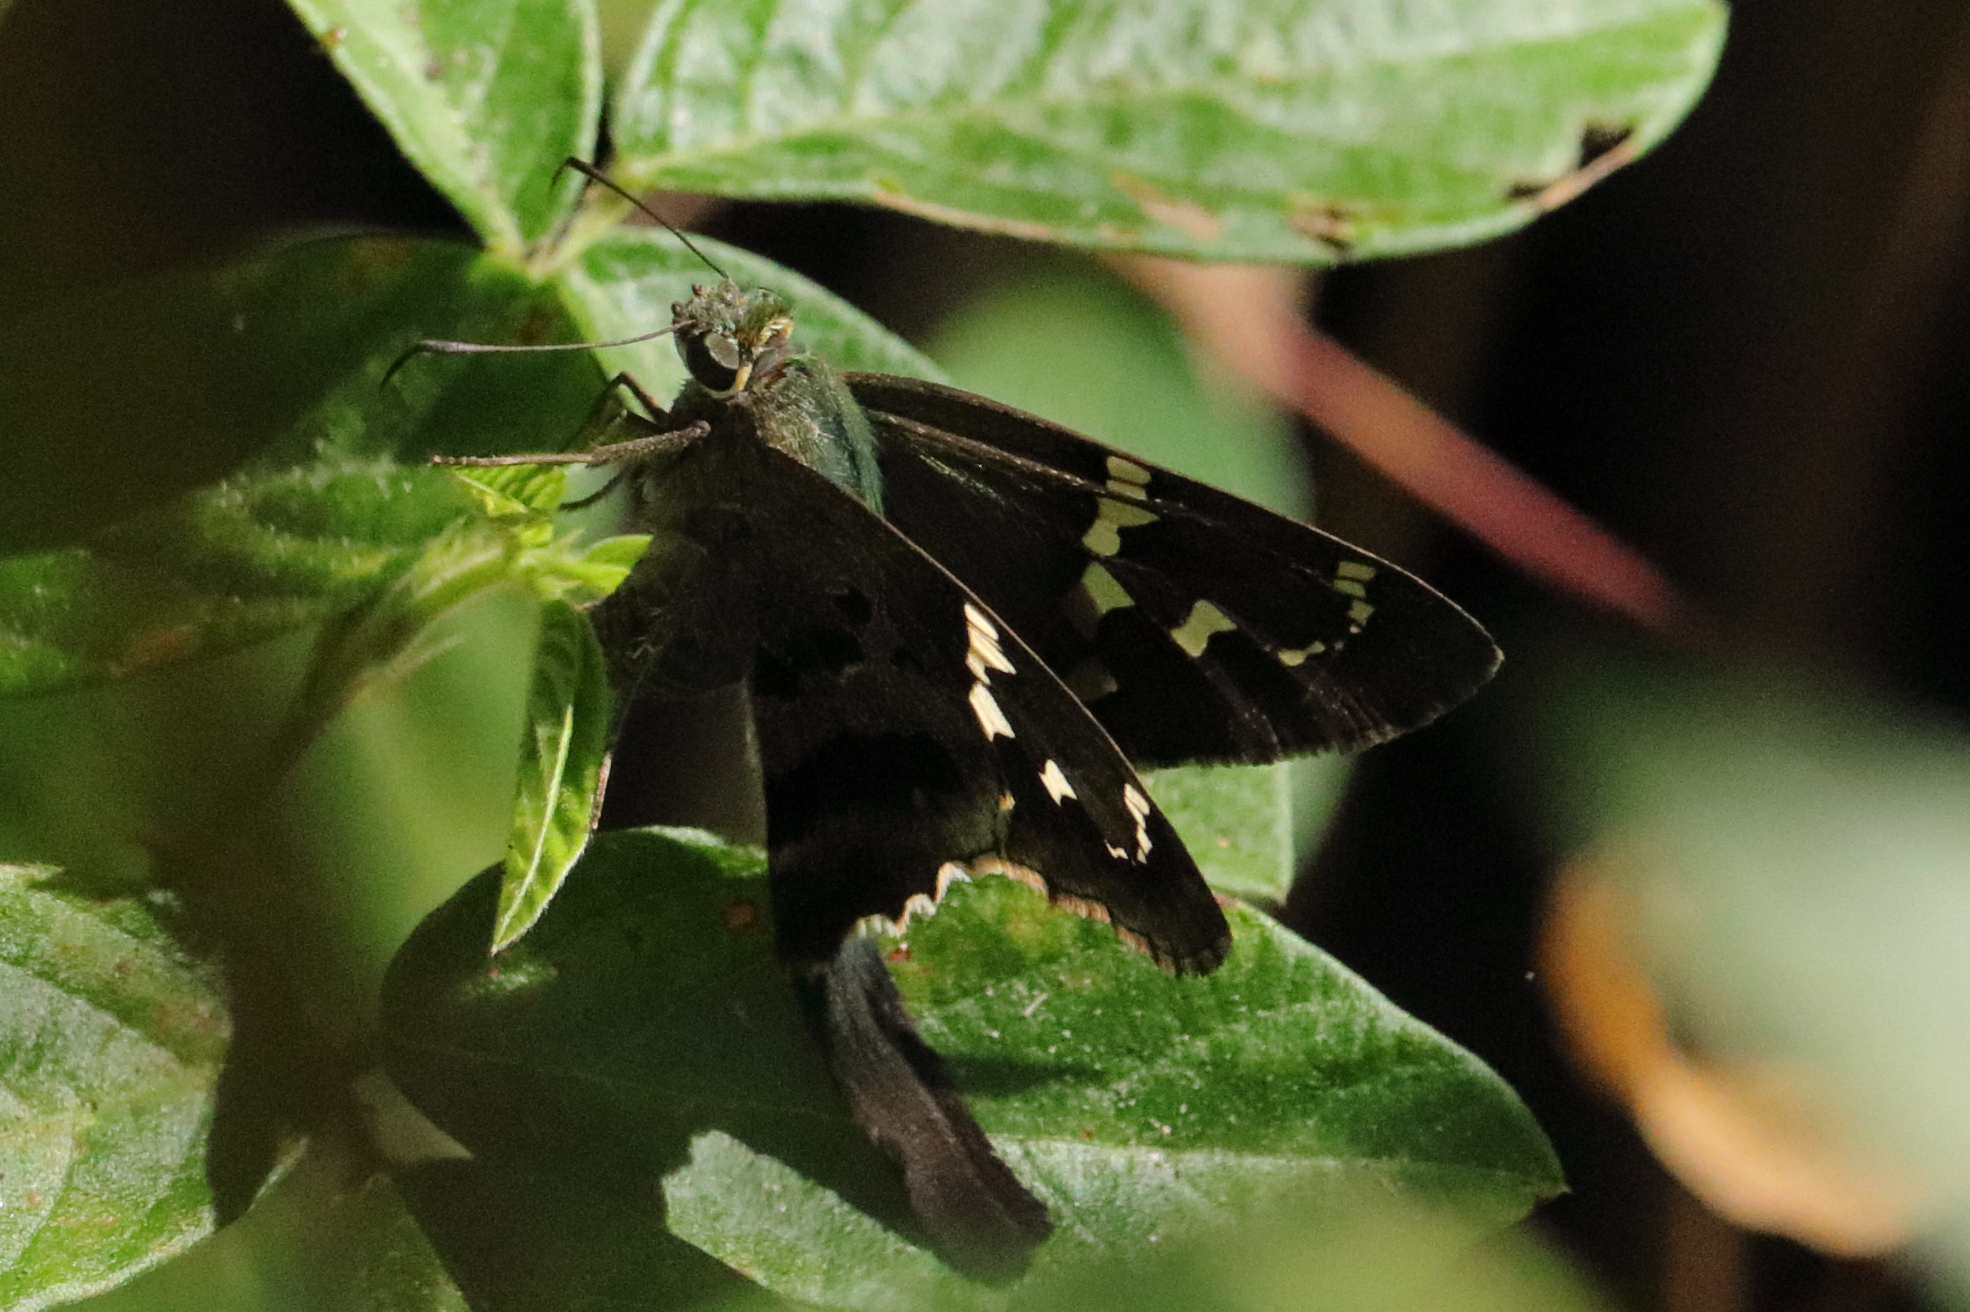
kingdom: Animalia
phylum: Arthropoda
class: Insecta
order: Lepidoptera
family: Hesperiidae
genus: Urbanus
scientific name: Urbanus proteus
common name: Long-tailed skipper
